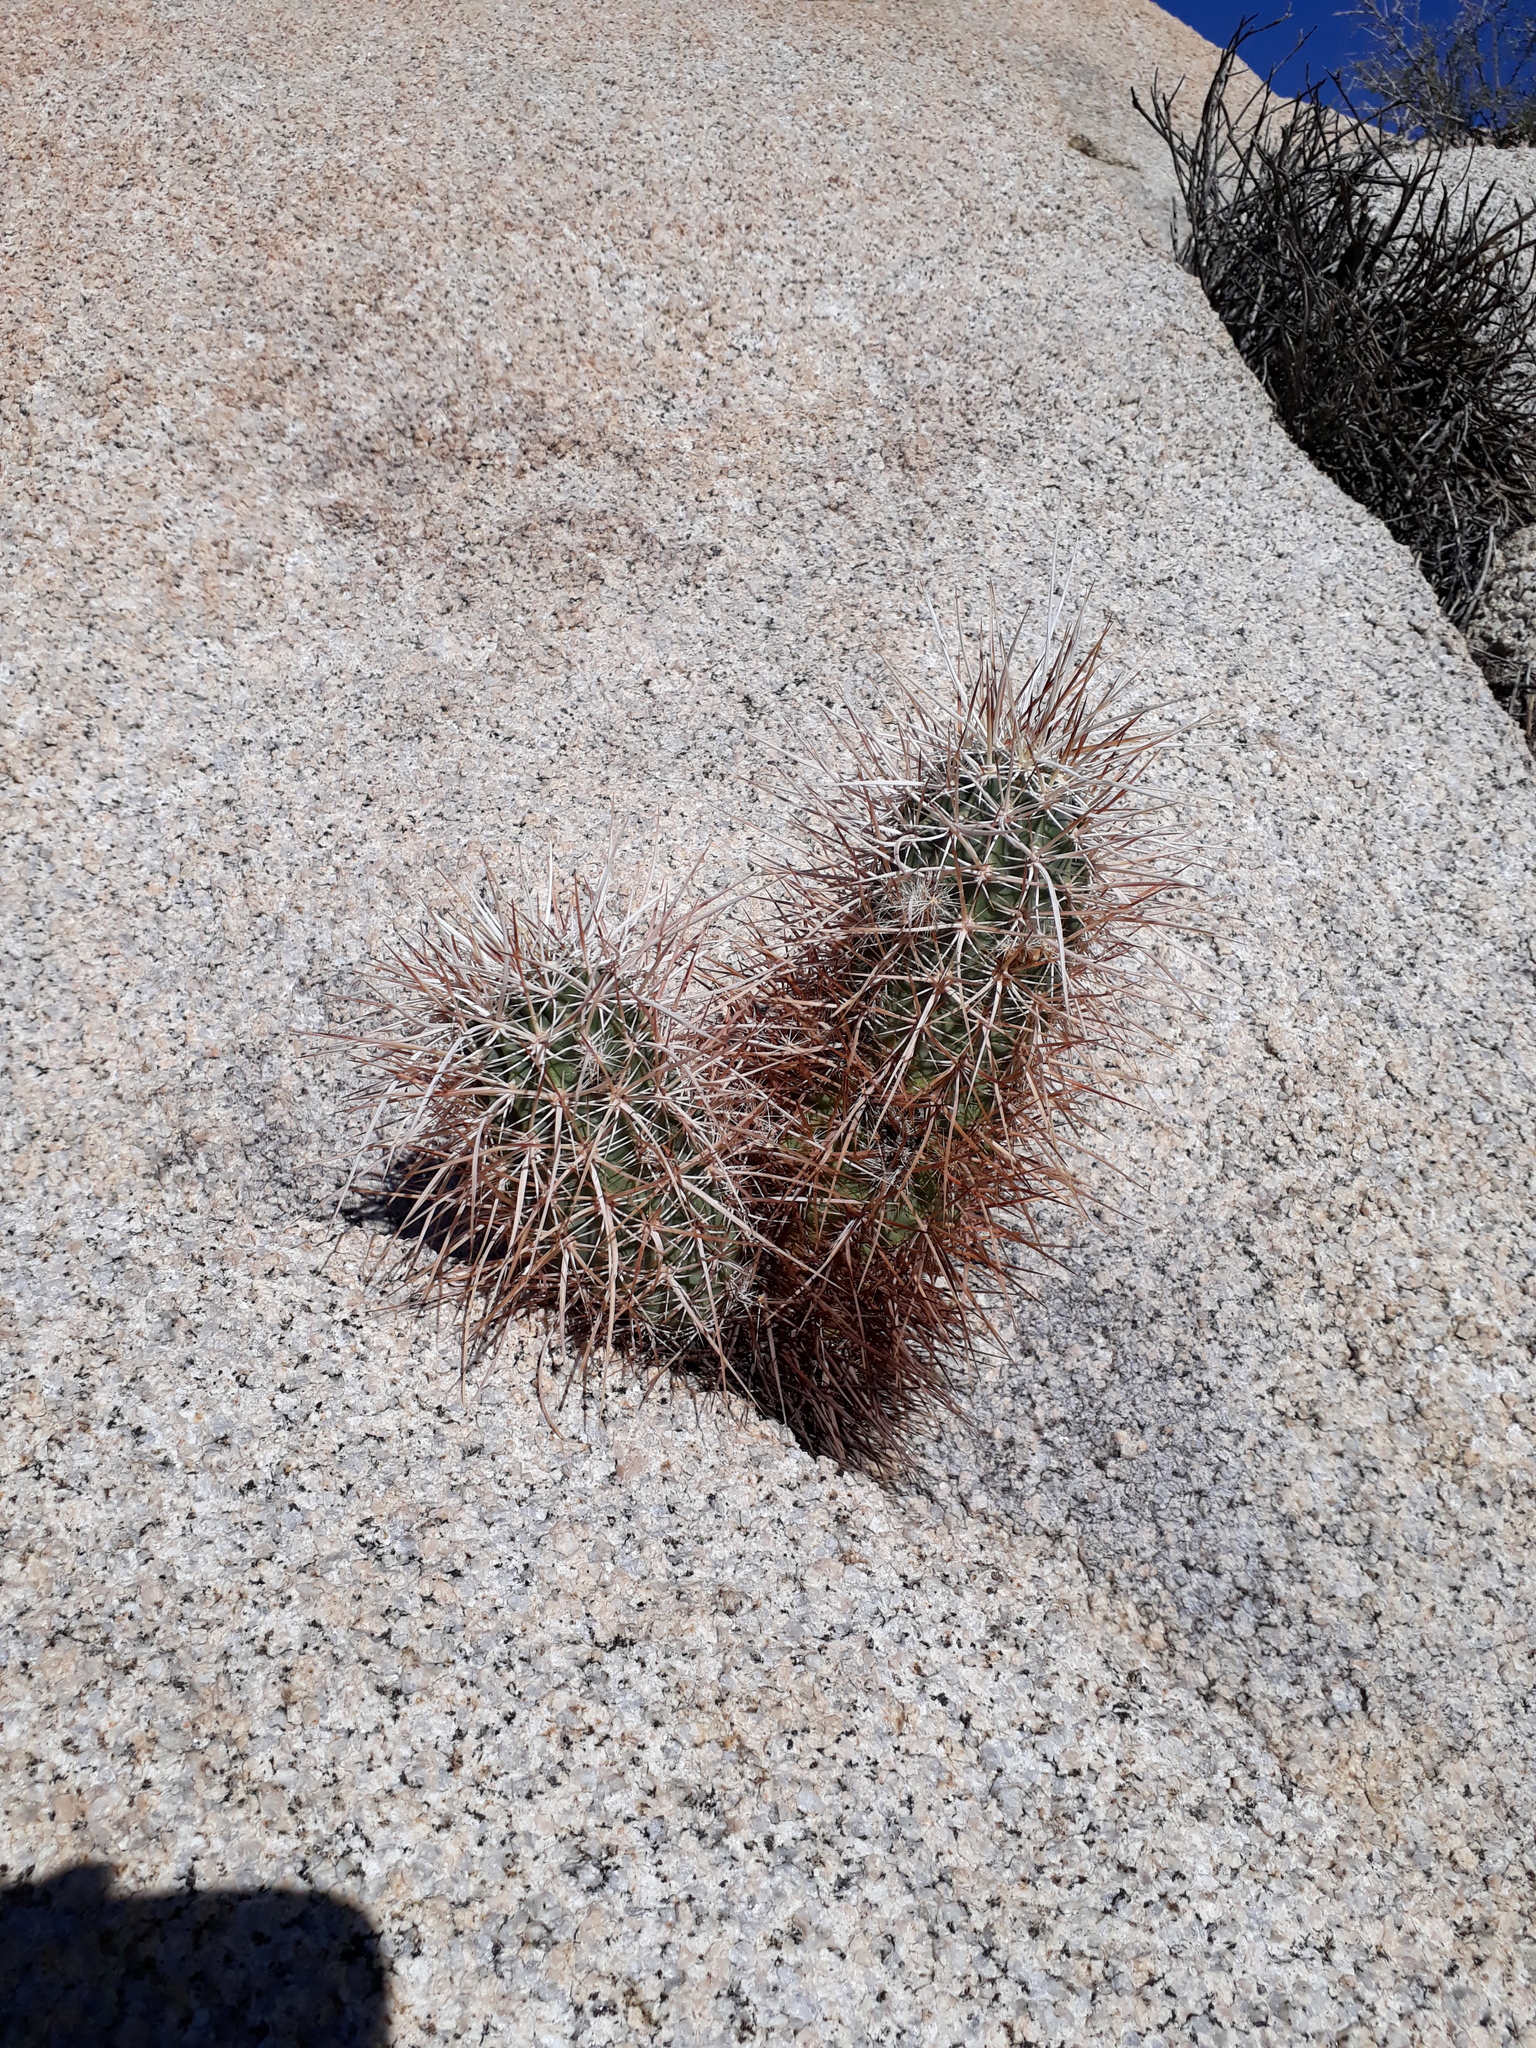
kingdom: Plantae
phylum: Tracheophyta
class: Magnoliopsida
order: Caryophyllales
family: Cactaceae
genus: Echinocereus
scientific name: Echinocereus engelmannii
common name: Engelmann's hedgehog cactus
